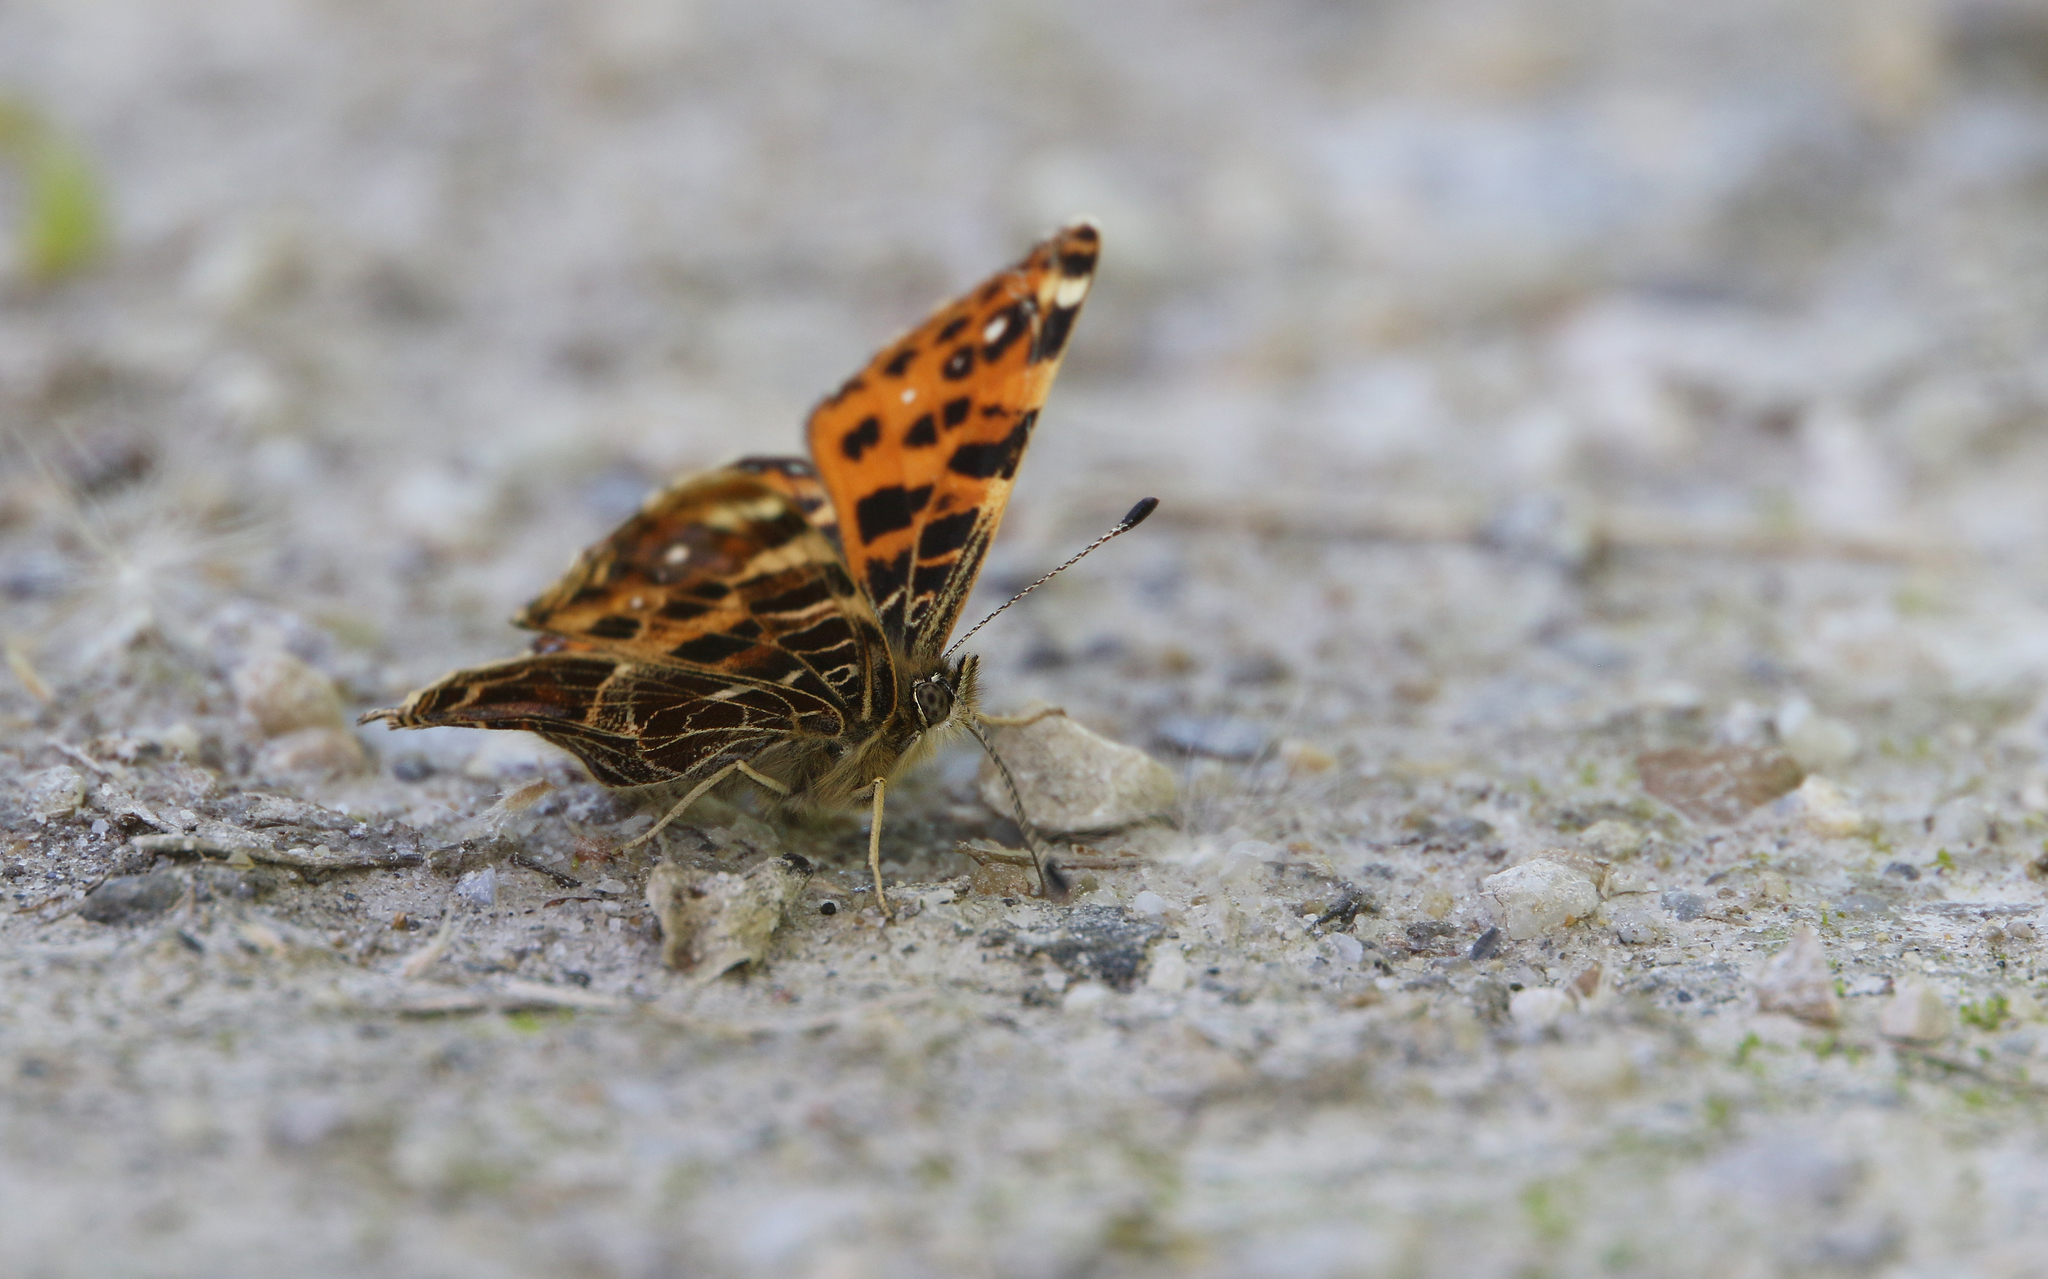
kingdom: Animalia
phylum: Arthropoda
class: Insecta
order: Lepidoptera
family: Nymphalidae
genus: Araschnia
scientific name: Araschnia levana
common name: Map butterfly
